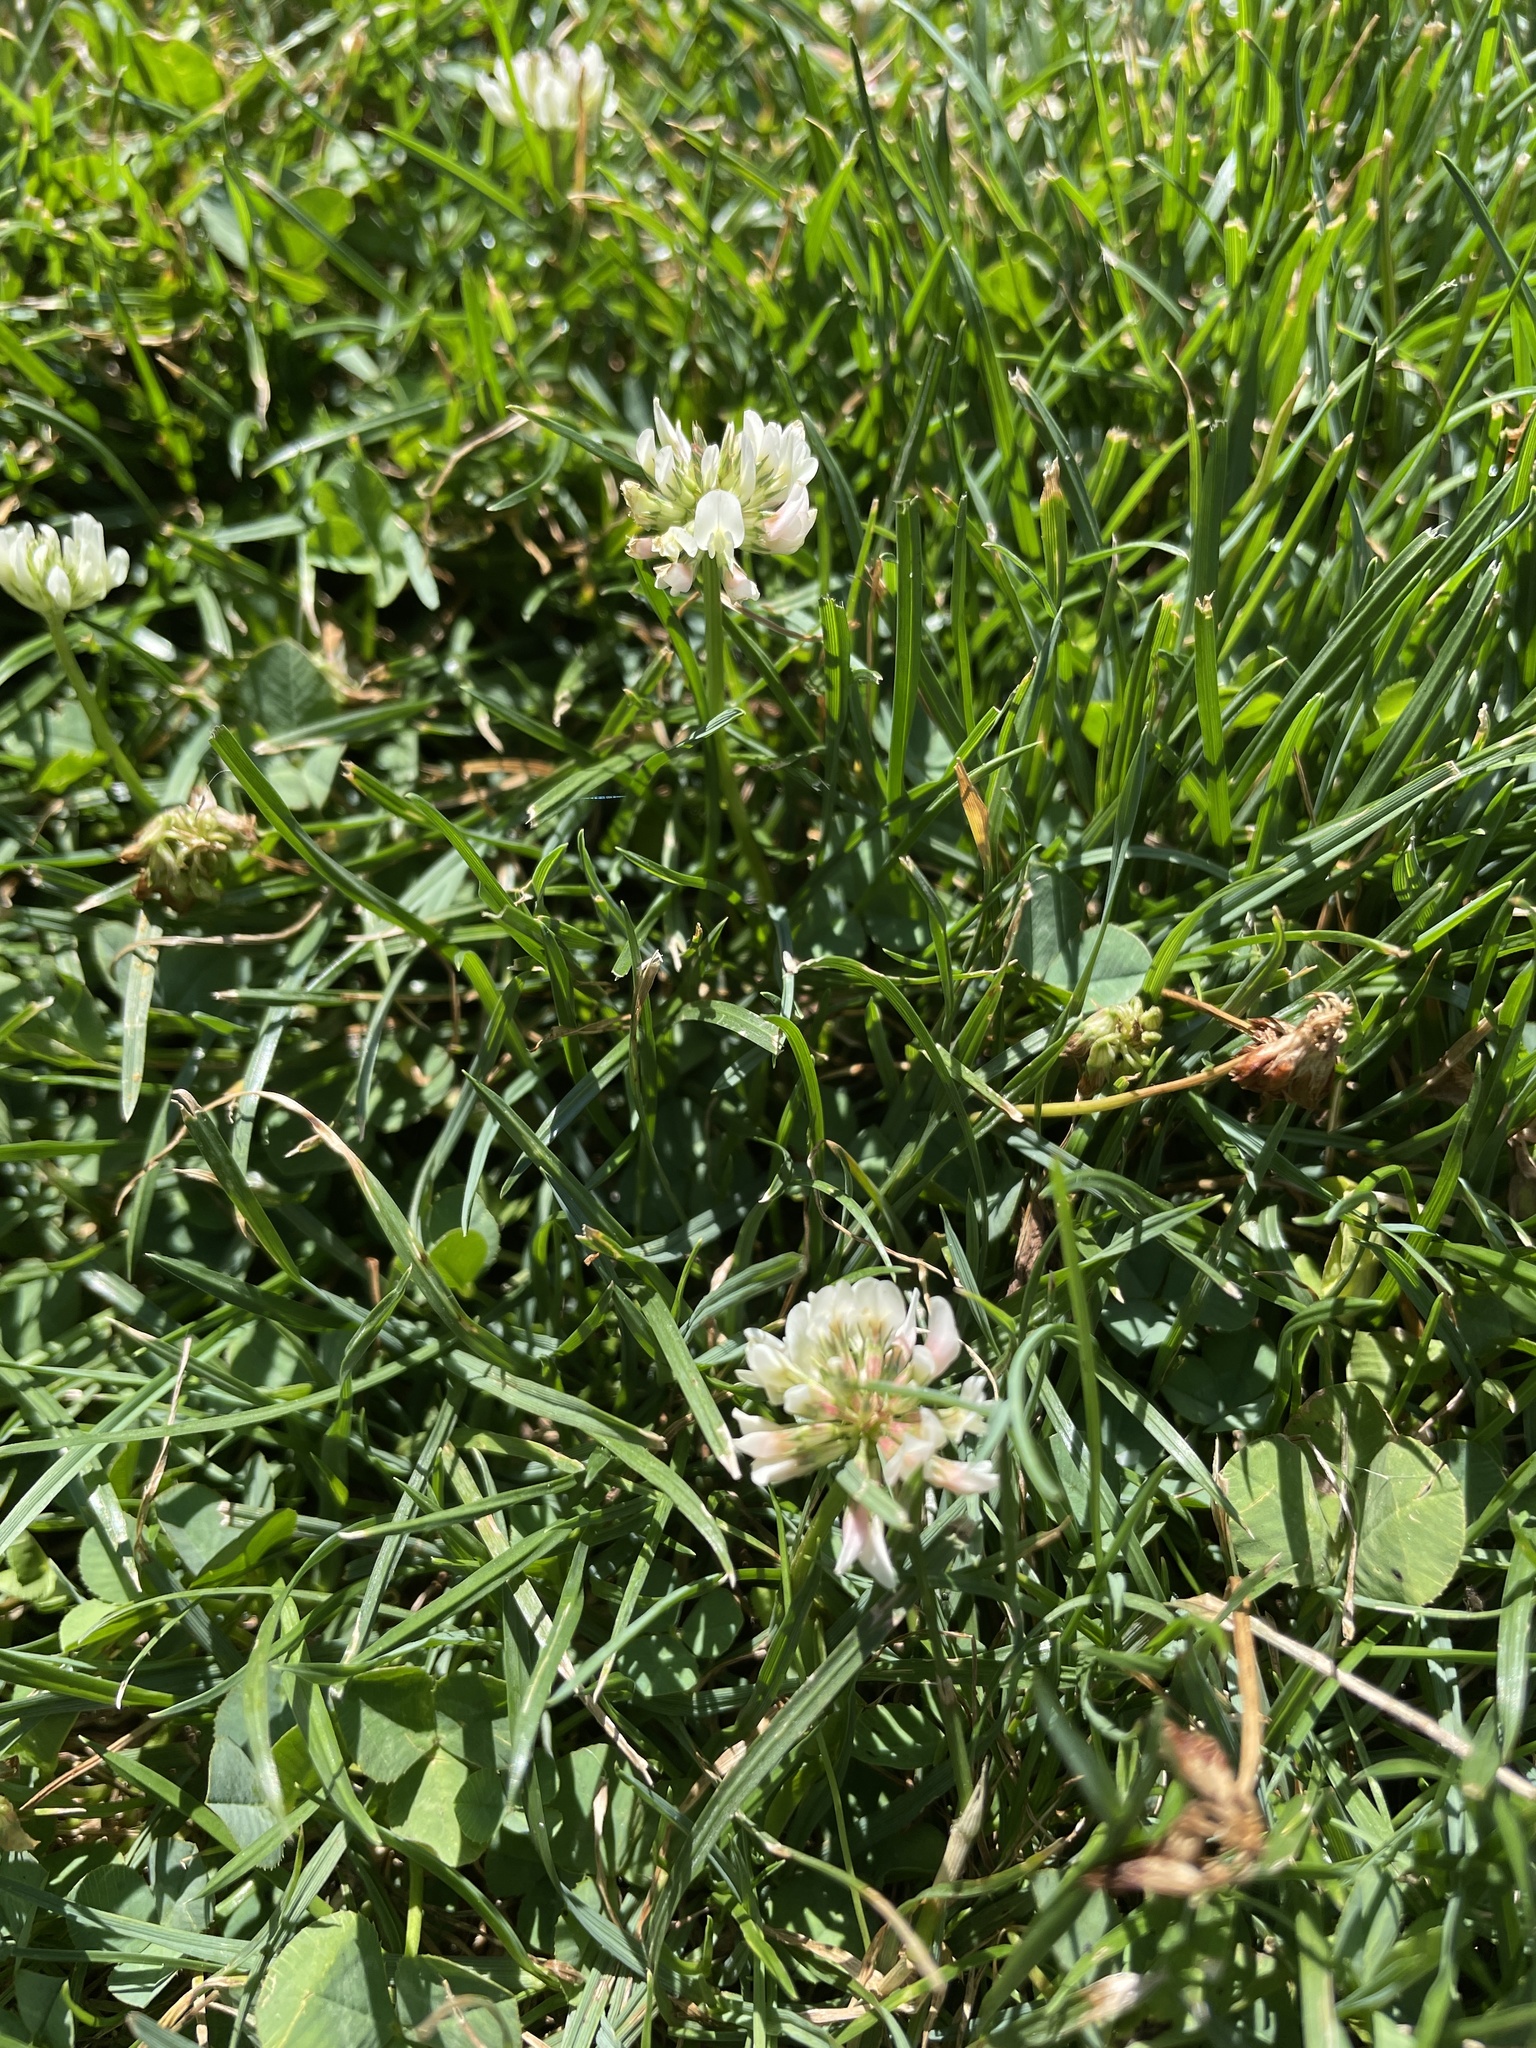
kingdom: Plantae
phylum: Tracheophyta
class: Magnoliopsida
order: Fabales
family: Fabaceae
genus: Trifolium
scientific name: Trifolium repens
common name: White clover
